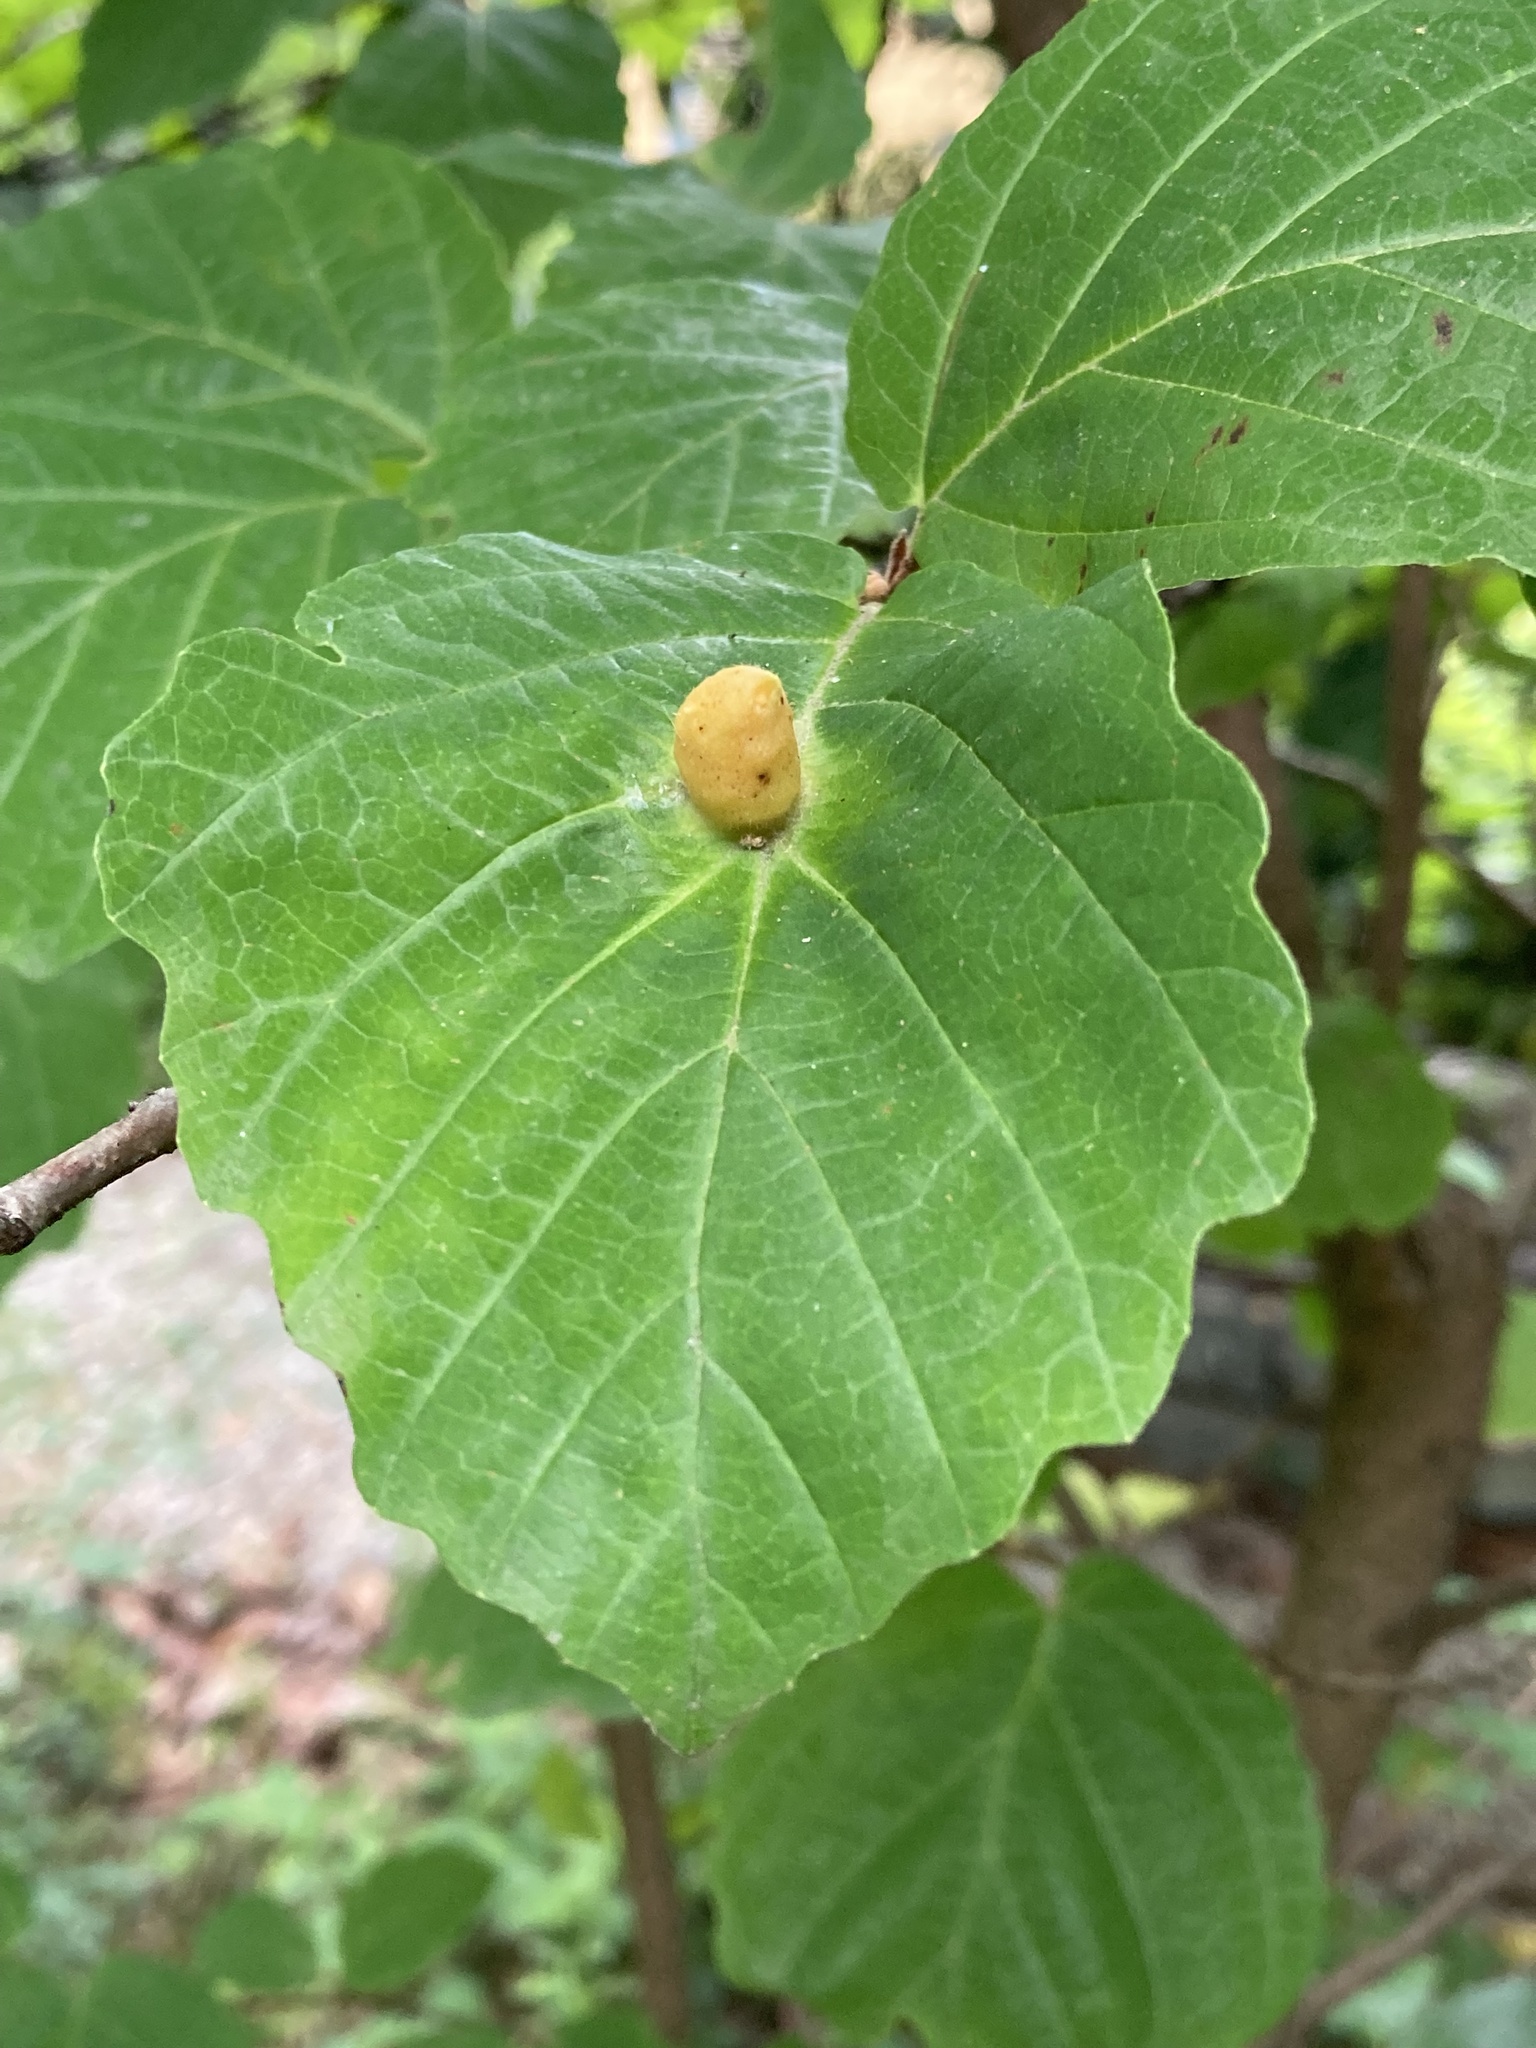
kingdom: Animalia
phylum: Arthropoda
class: Insecta
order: Hemiptera
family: Aphididae
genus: Hormaphis
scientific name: Hormaphis hamamelidis
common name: Witch-hazel cone gall aphid
